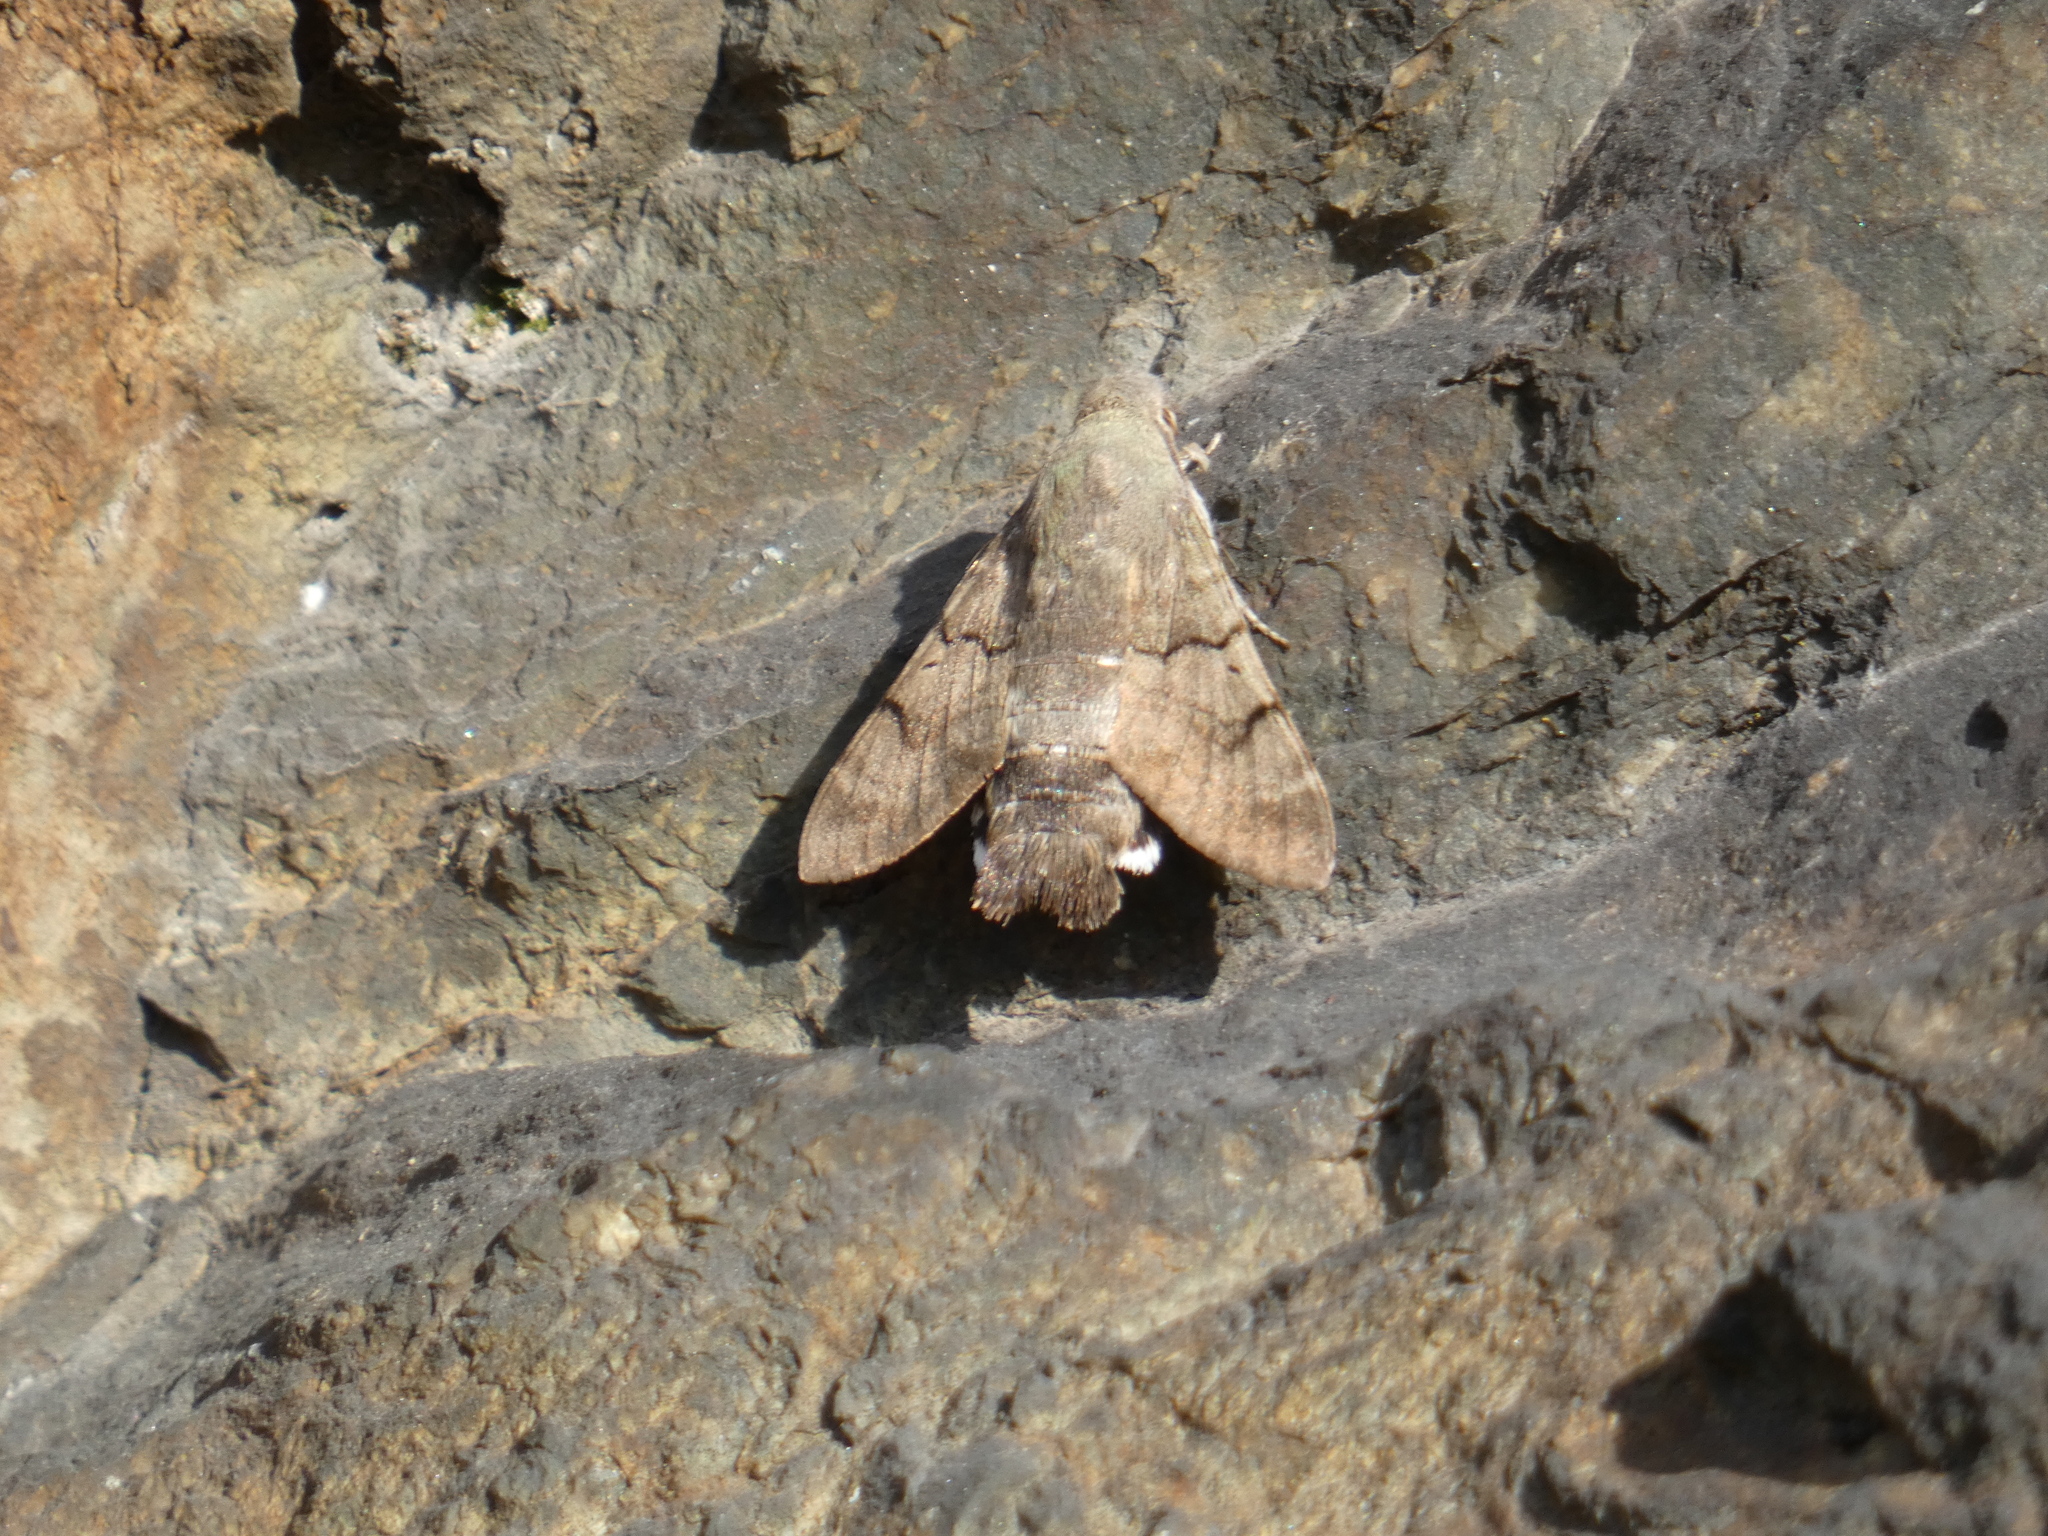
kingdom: Animalia
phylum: Arthropoda
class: Insecta
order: Lepidoptera
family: Sphingidae
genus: Macroglossum
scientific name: Macroglossum stellatarum
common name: Humming-bird hawk-moth
